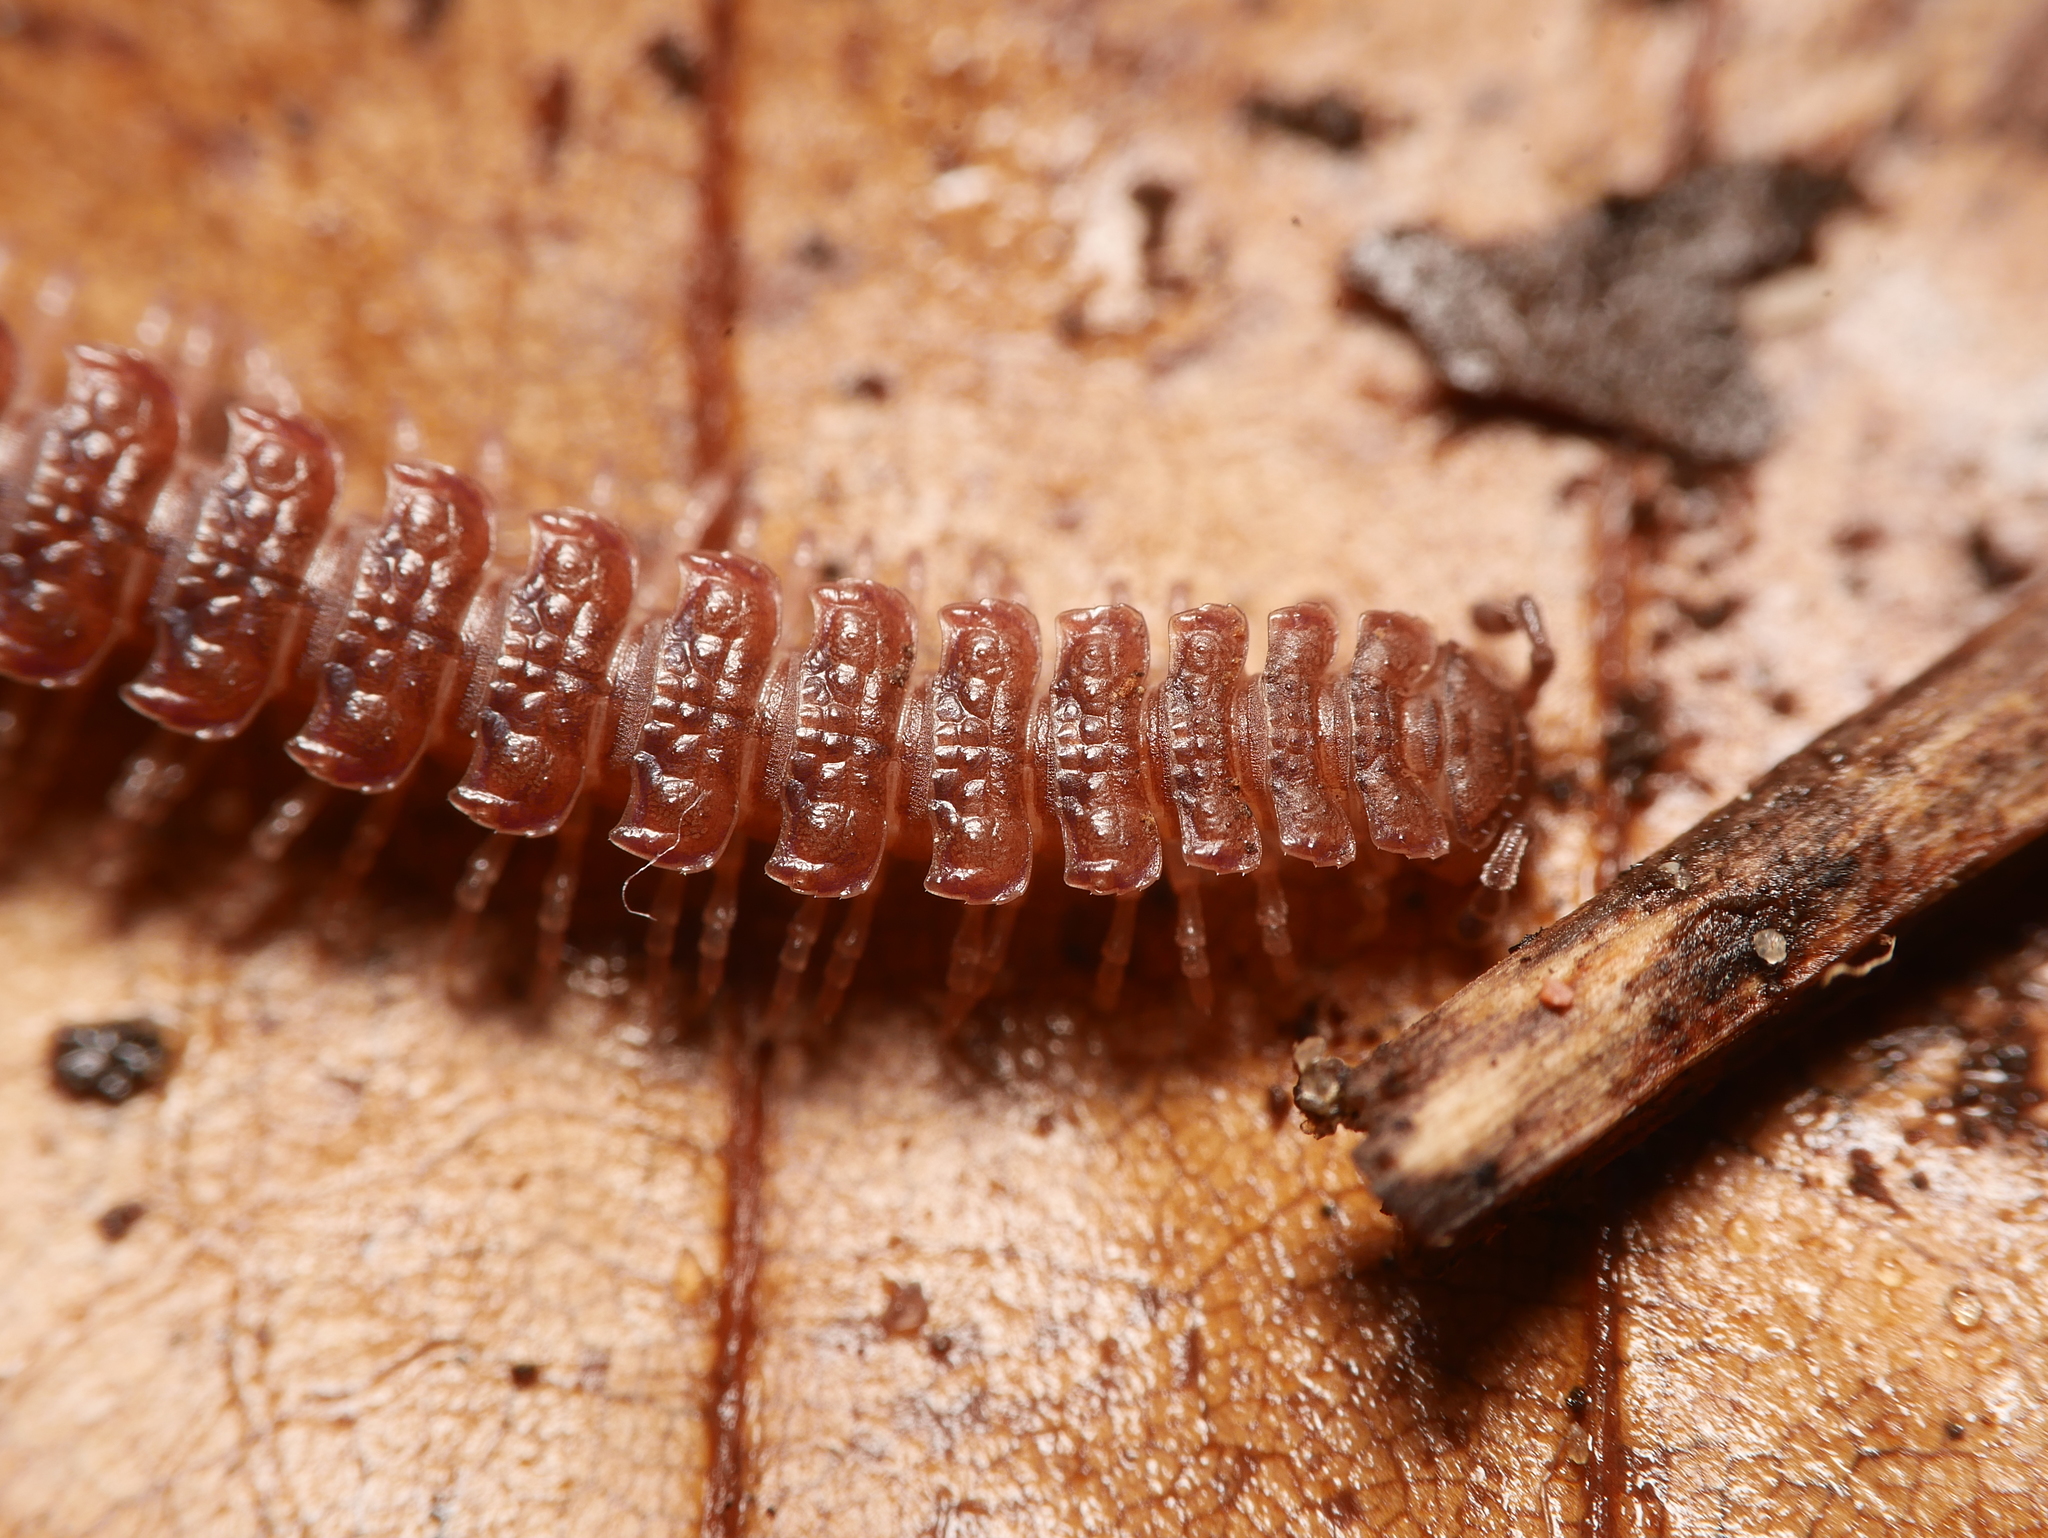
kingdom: Animalia
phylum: Arthropoda
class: Diplopoda
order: Polydesmida
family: Polydesmidae
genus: Polydesmus
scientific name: Polydesmus angustus
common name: Flat millipede
